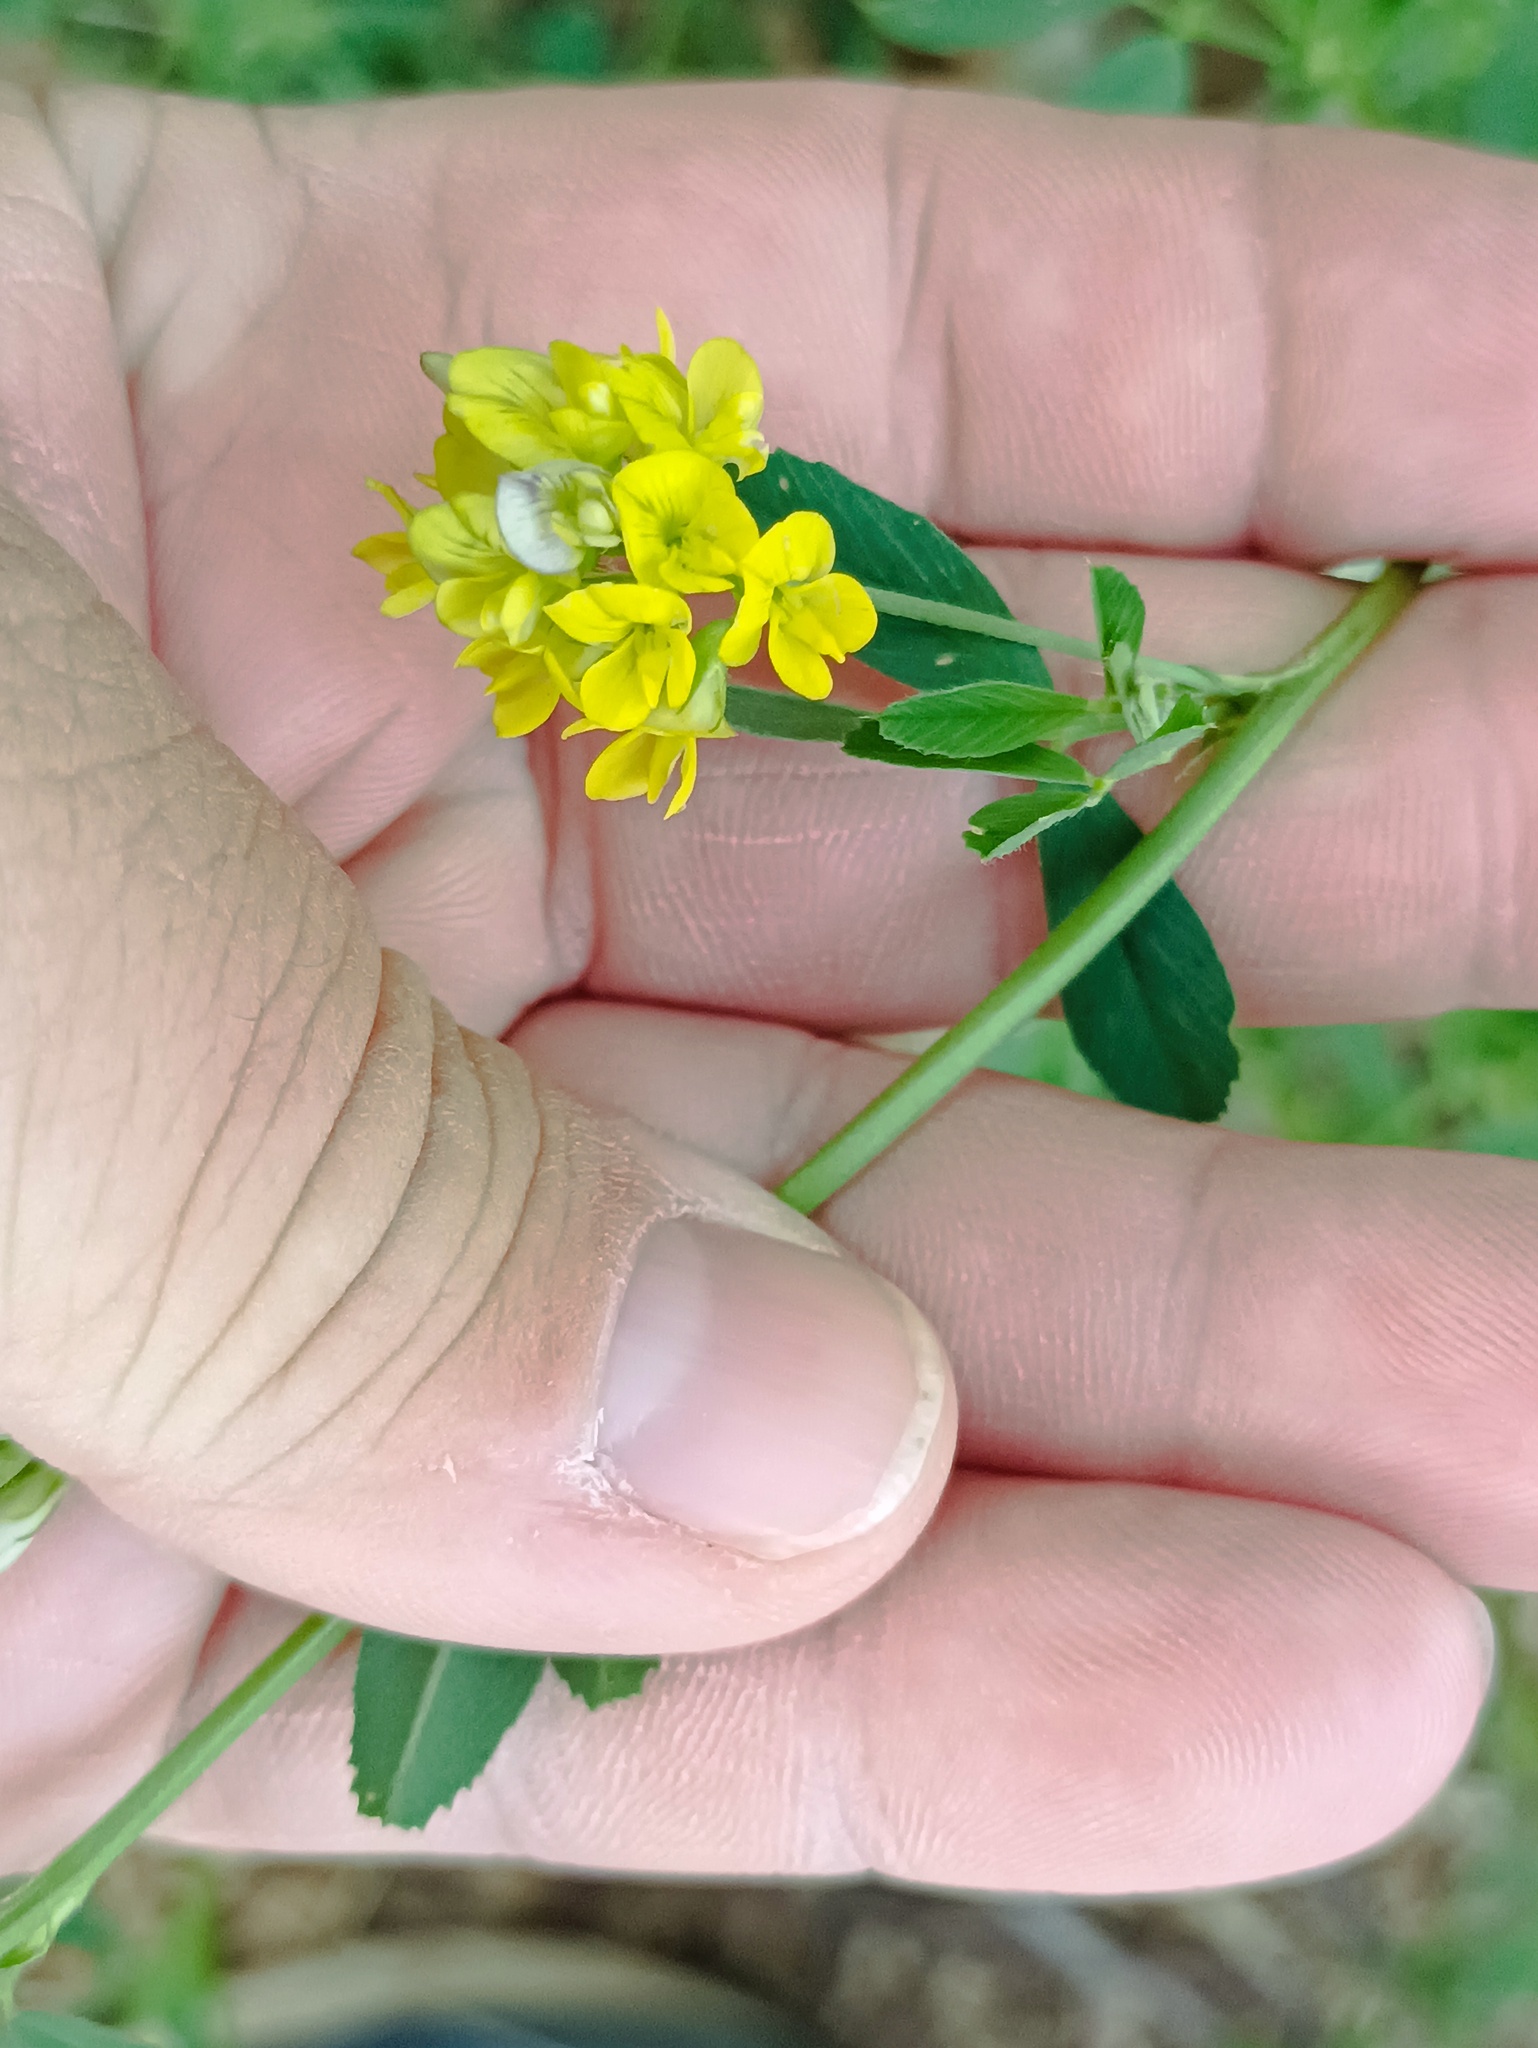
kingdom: Plantae
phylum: Tracheophyta
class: Magnoliopsida
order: Fabales
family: Fabaceae
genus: Medicago
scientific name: Medicago falcata
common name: Sickle medick
